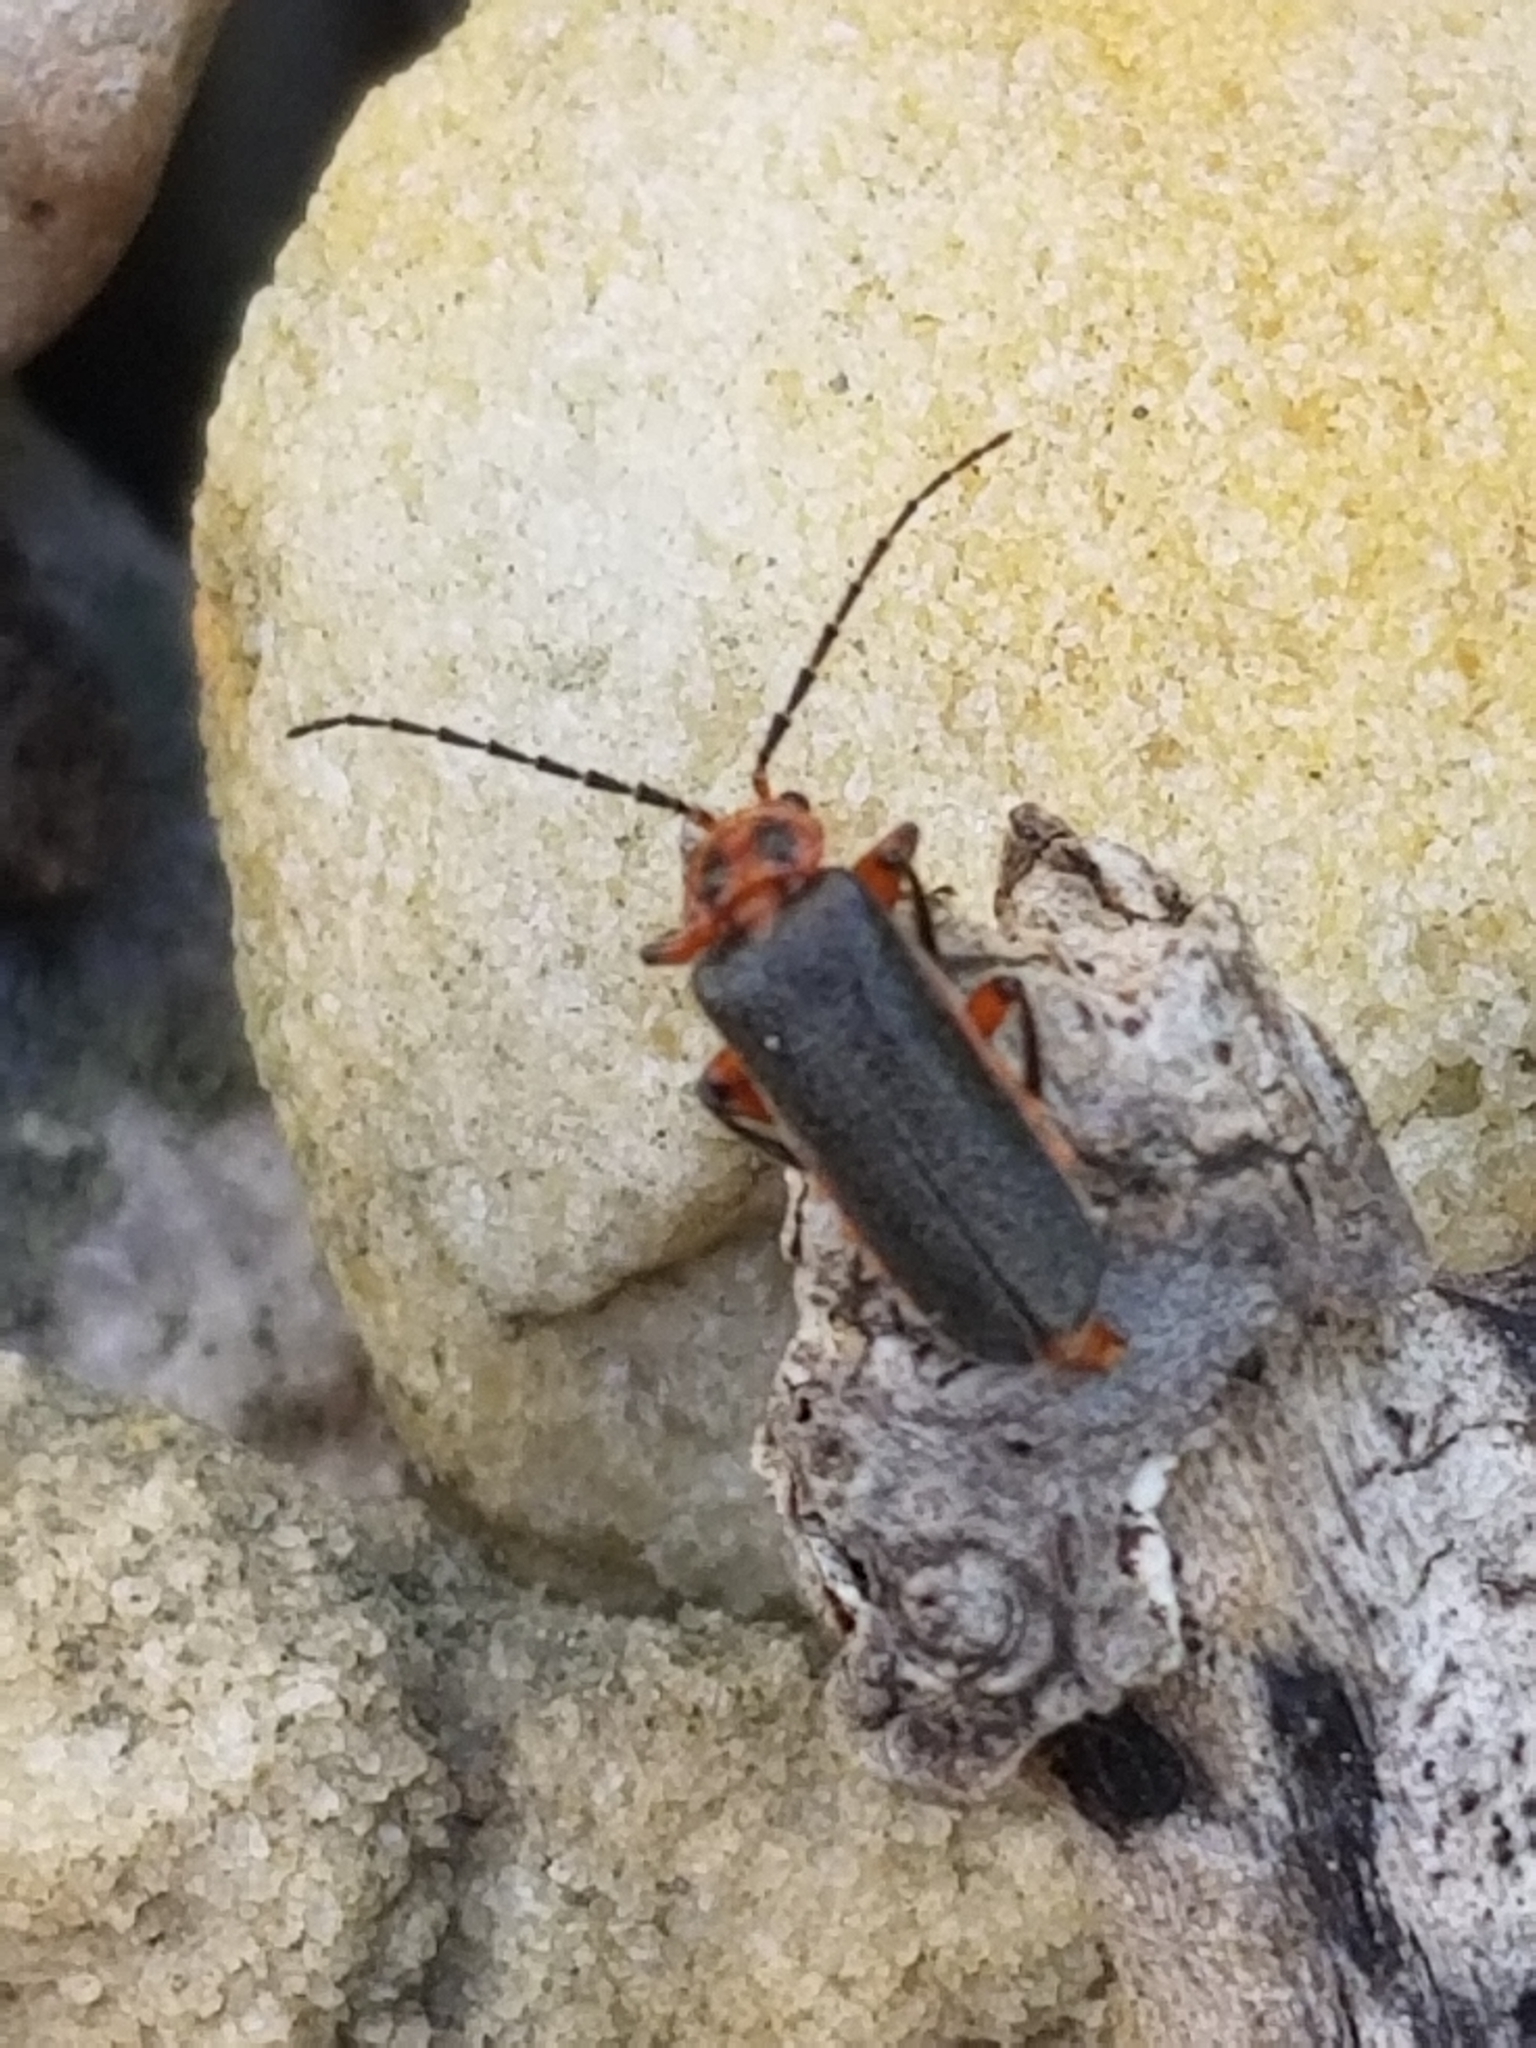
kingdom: Animalia
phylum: Arthropoda
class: Insecta
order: Coleoptera
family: Cantharidae
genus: Atalantycha
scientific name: Atalantycha bilineata
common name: Two-lined leatherwing
